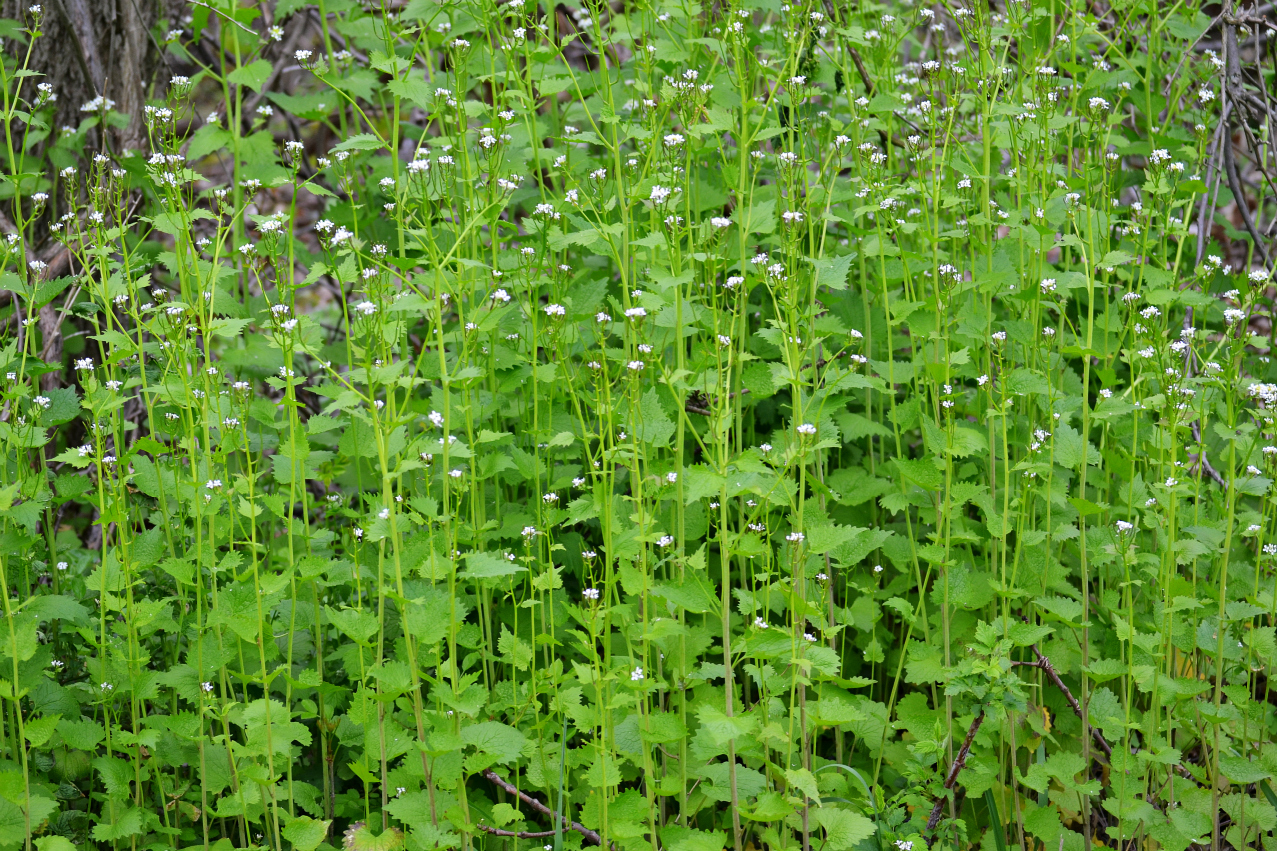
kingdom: Plantae
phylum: Tracheophyta
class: Magnoliopsida
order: Brassicales
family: Brassicaceae
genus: Alliaria
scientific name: Alliaria petiolata
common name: Garlic mustard
